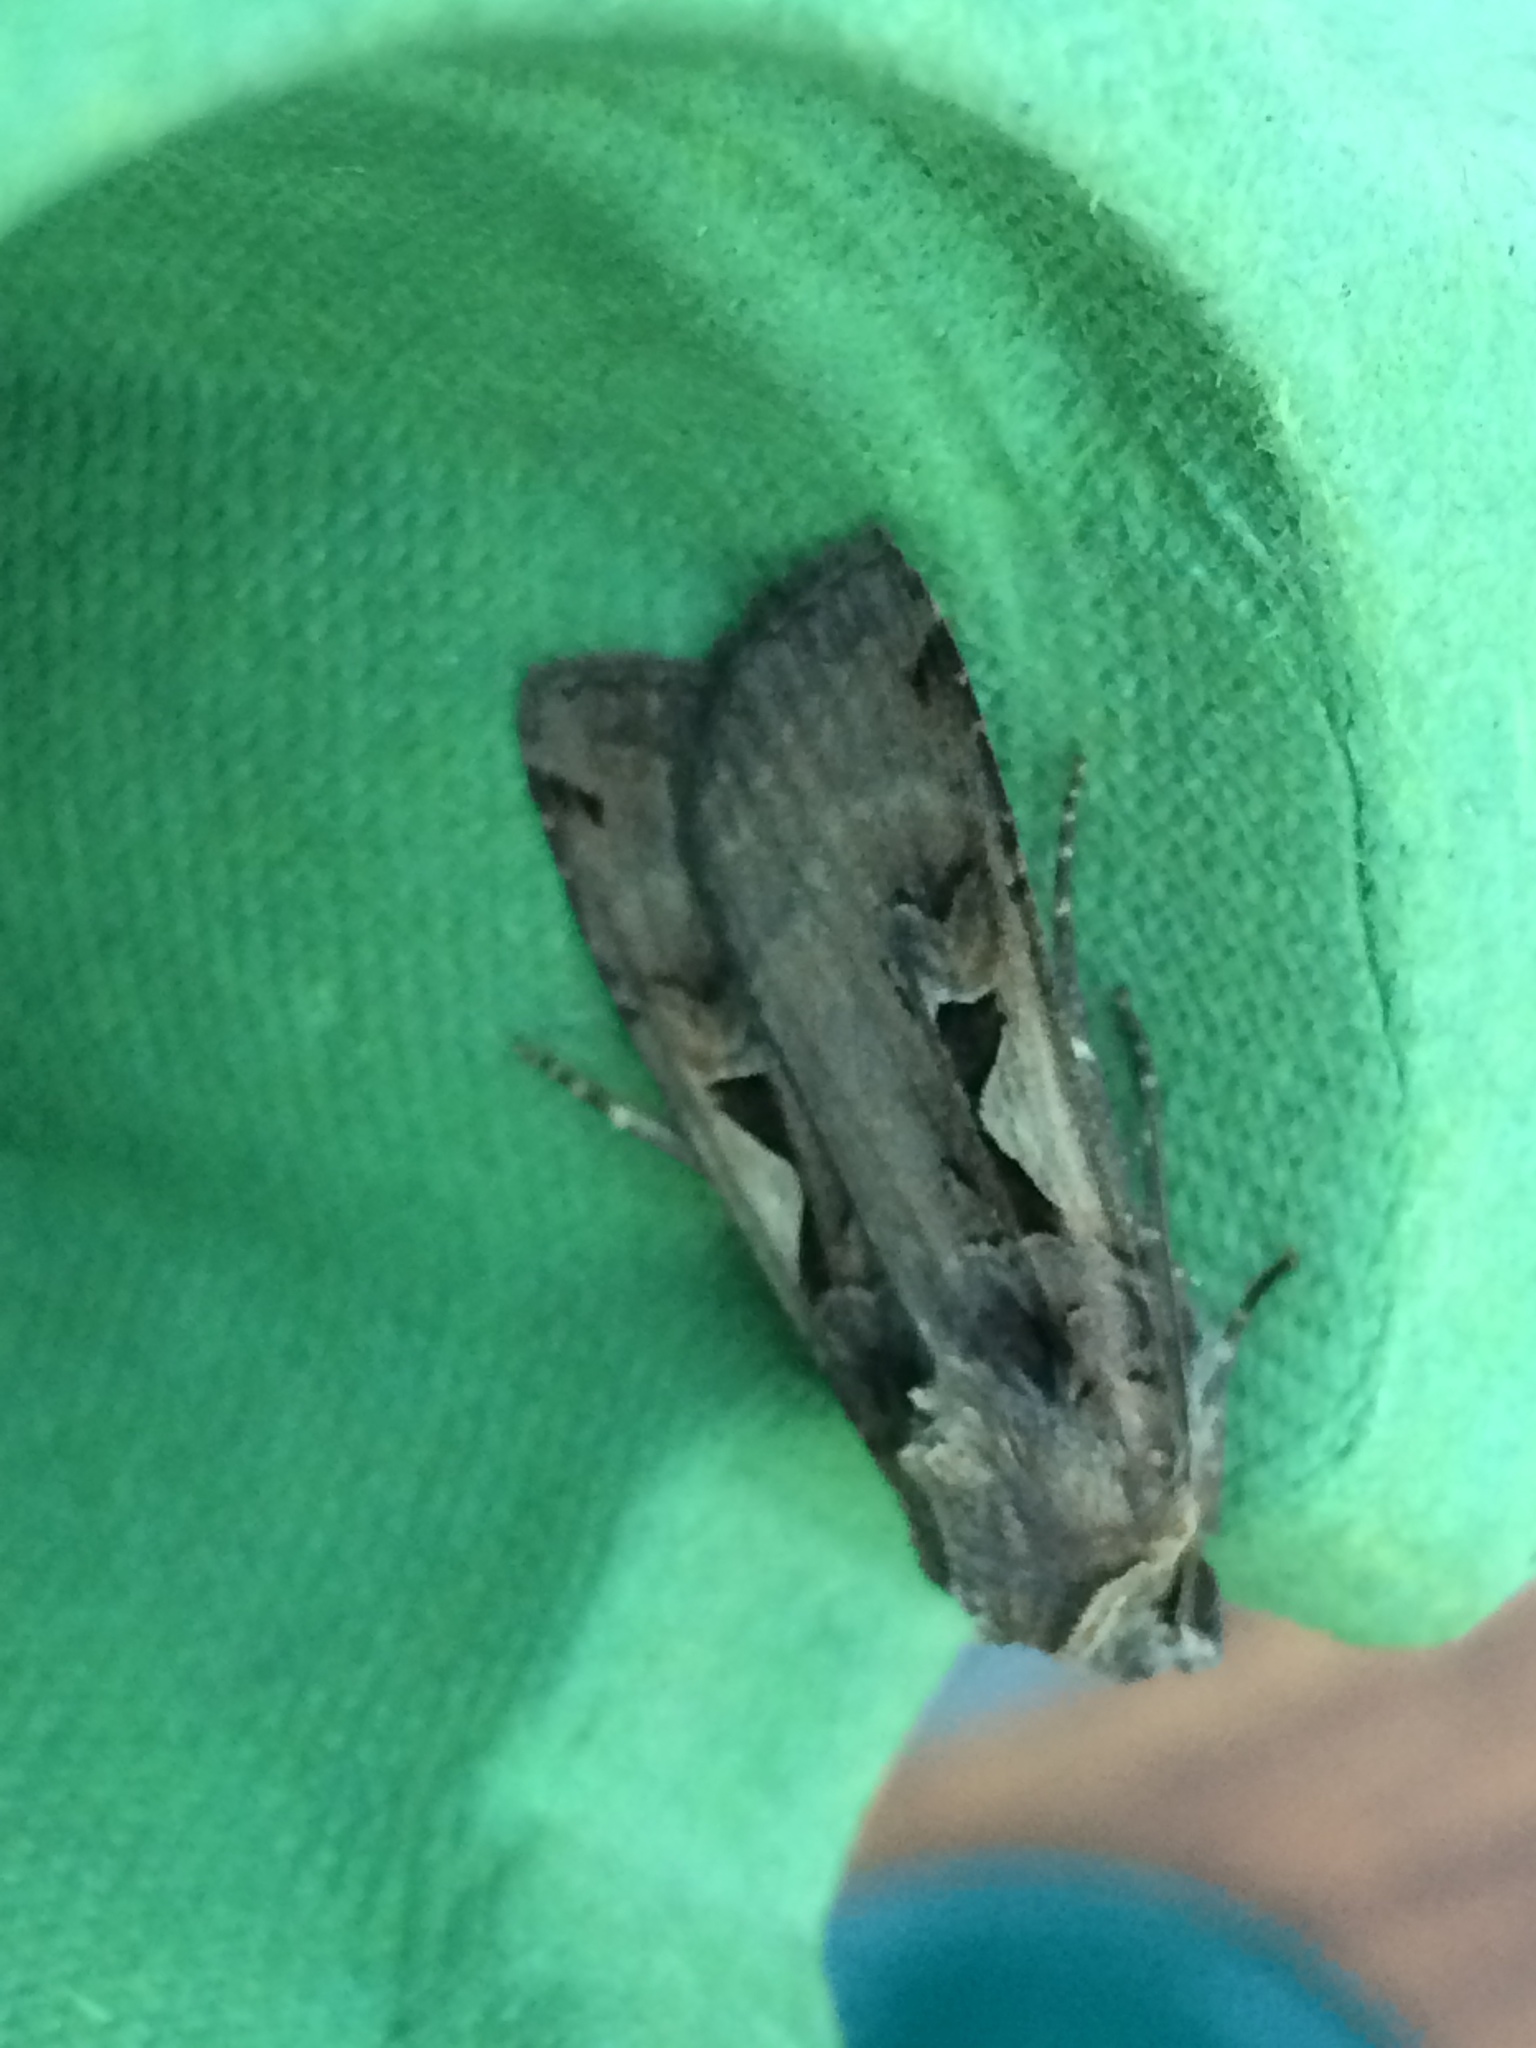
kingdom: Animalia
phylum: Arthropoda
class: Insecta
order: Lepidoptera
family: Noctuidae
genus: Xestia
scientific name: Xestia c-nigrum
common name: Setaceous hebrew character
